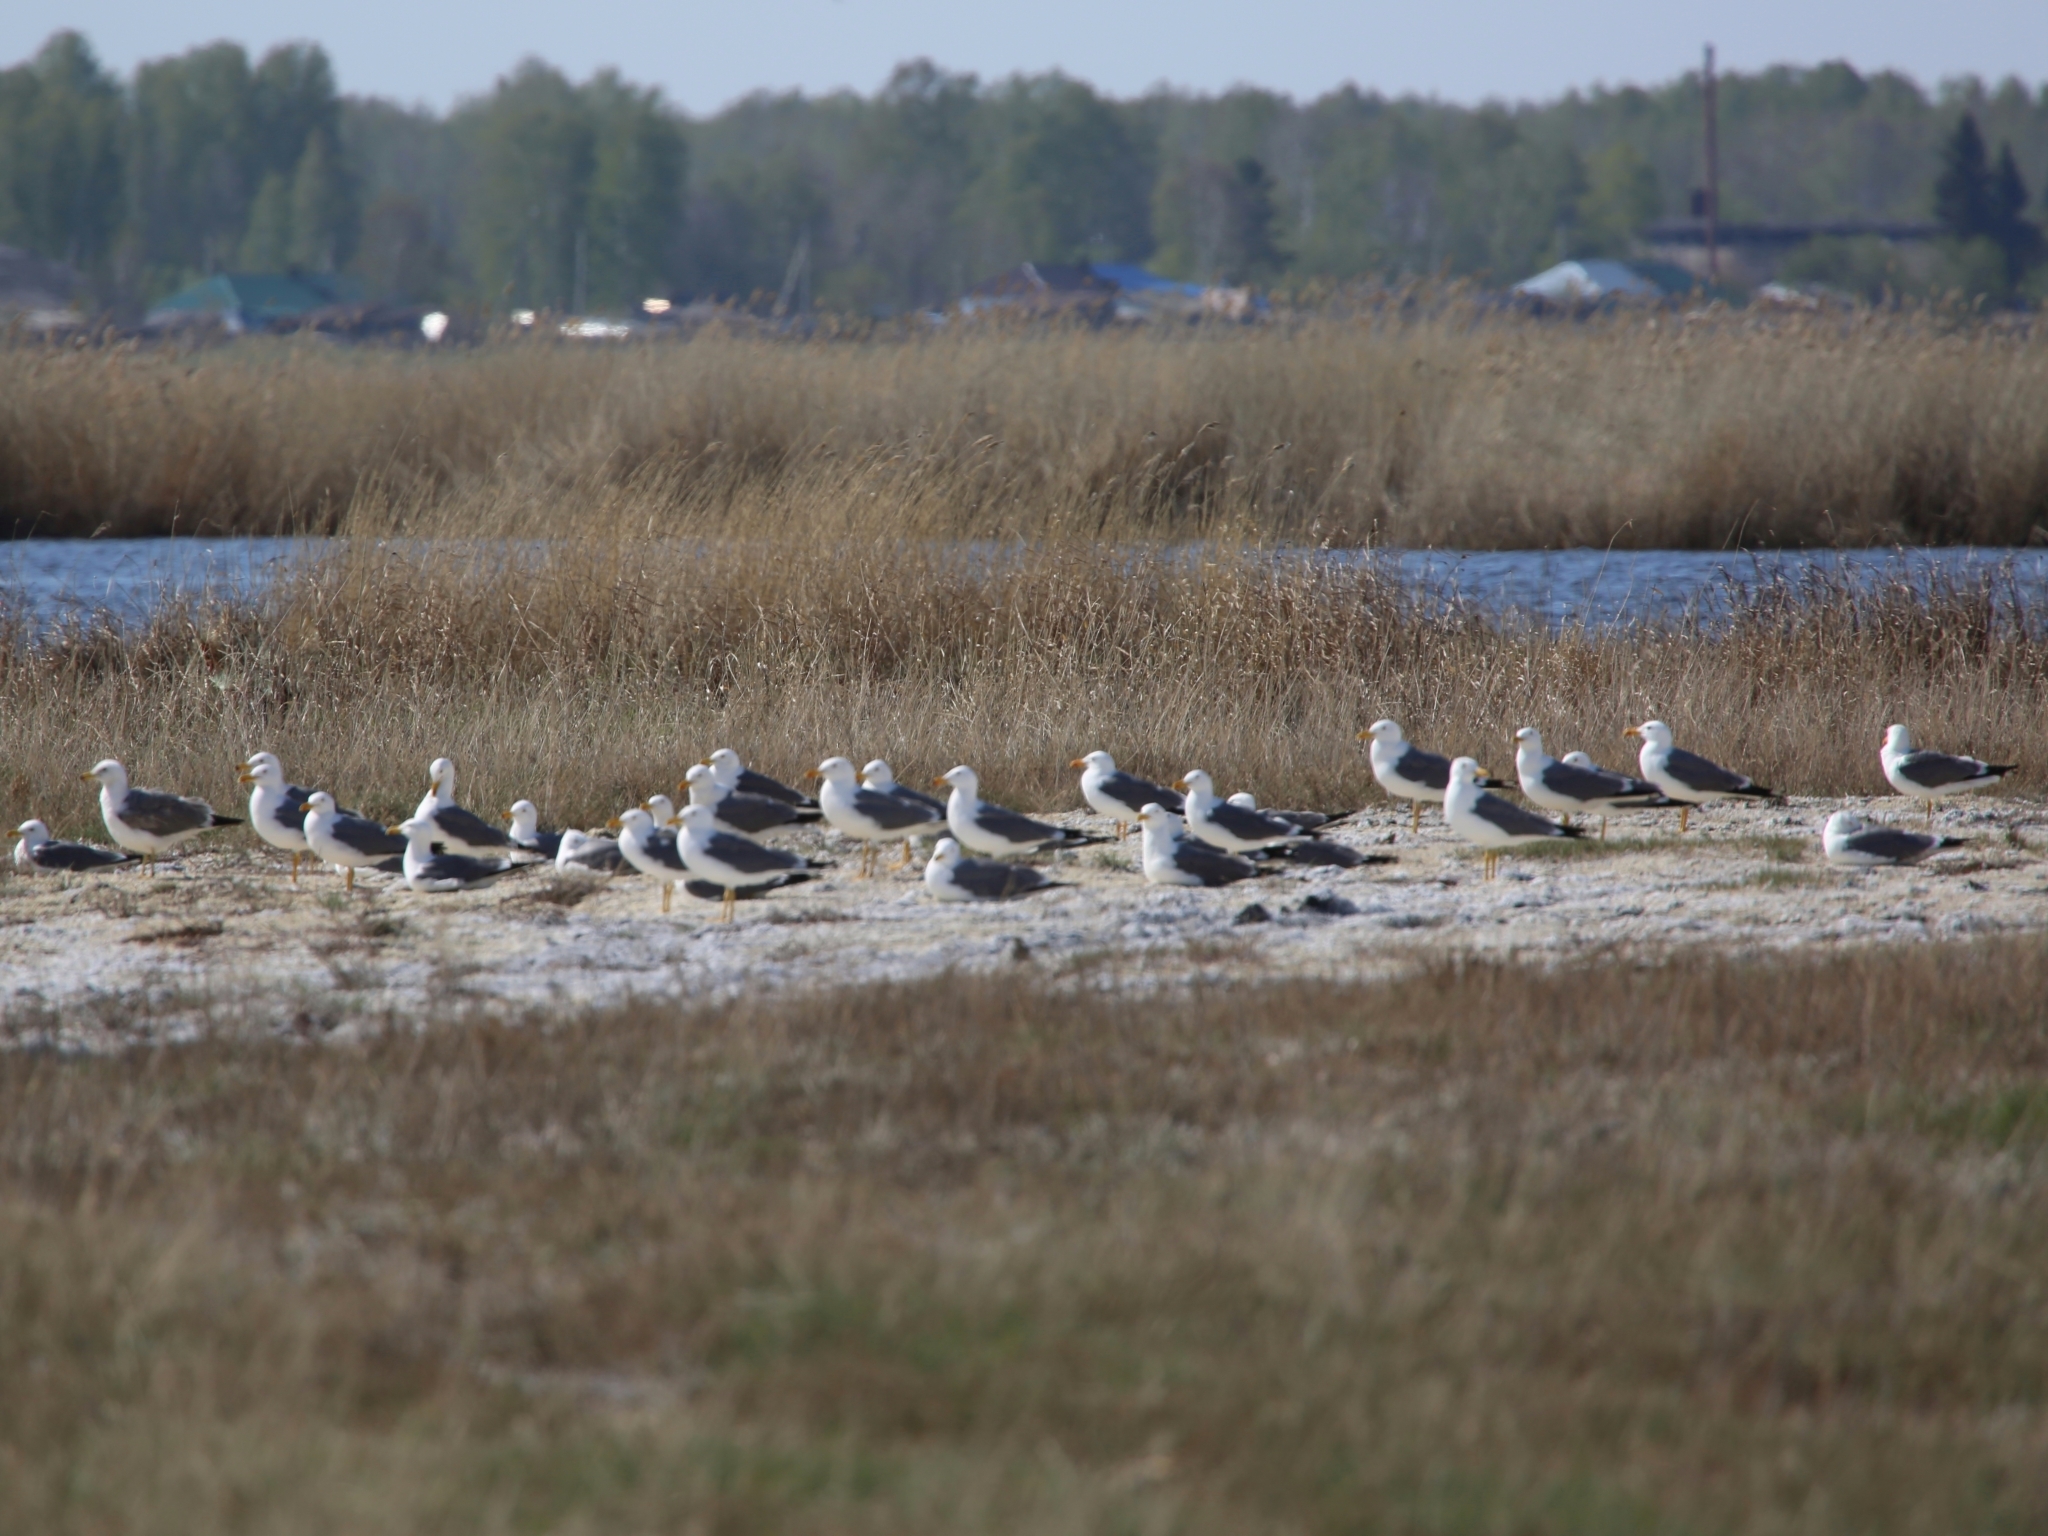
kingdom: Animalia
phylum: Chordata
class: Aves
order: Charadriiformes
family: Laridae
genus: Larus
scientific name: Larus fuscus
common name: Lesser black-backed gull
